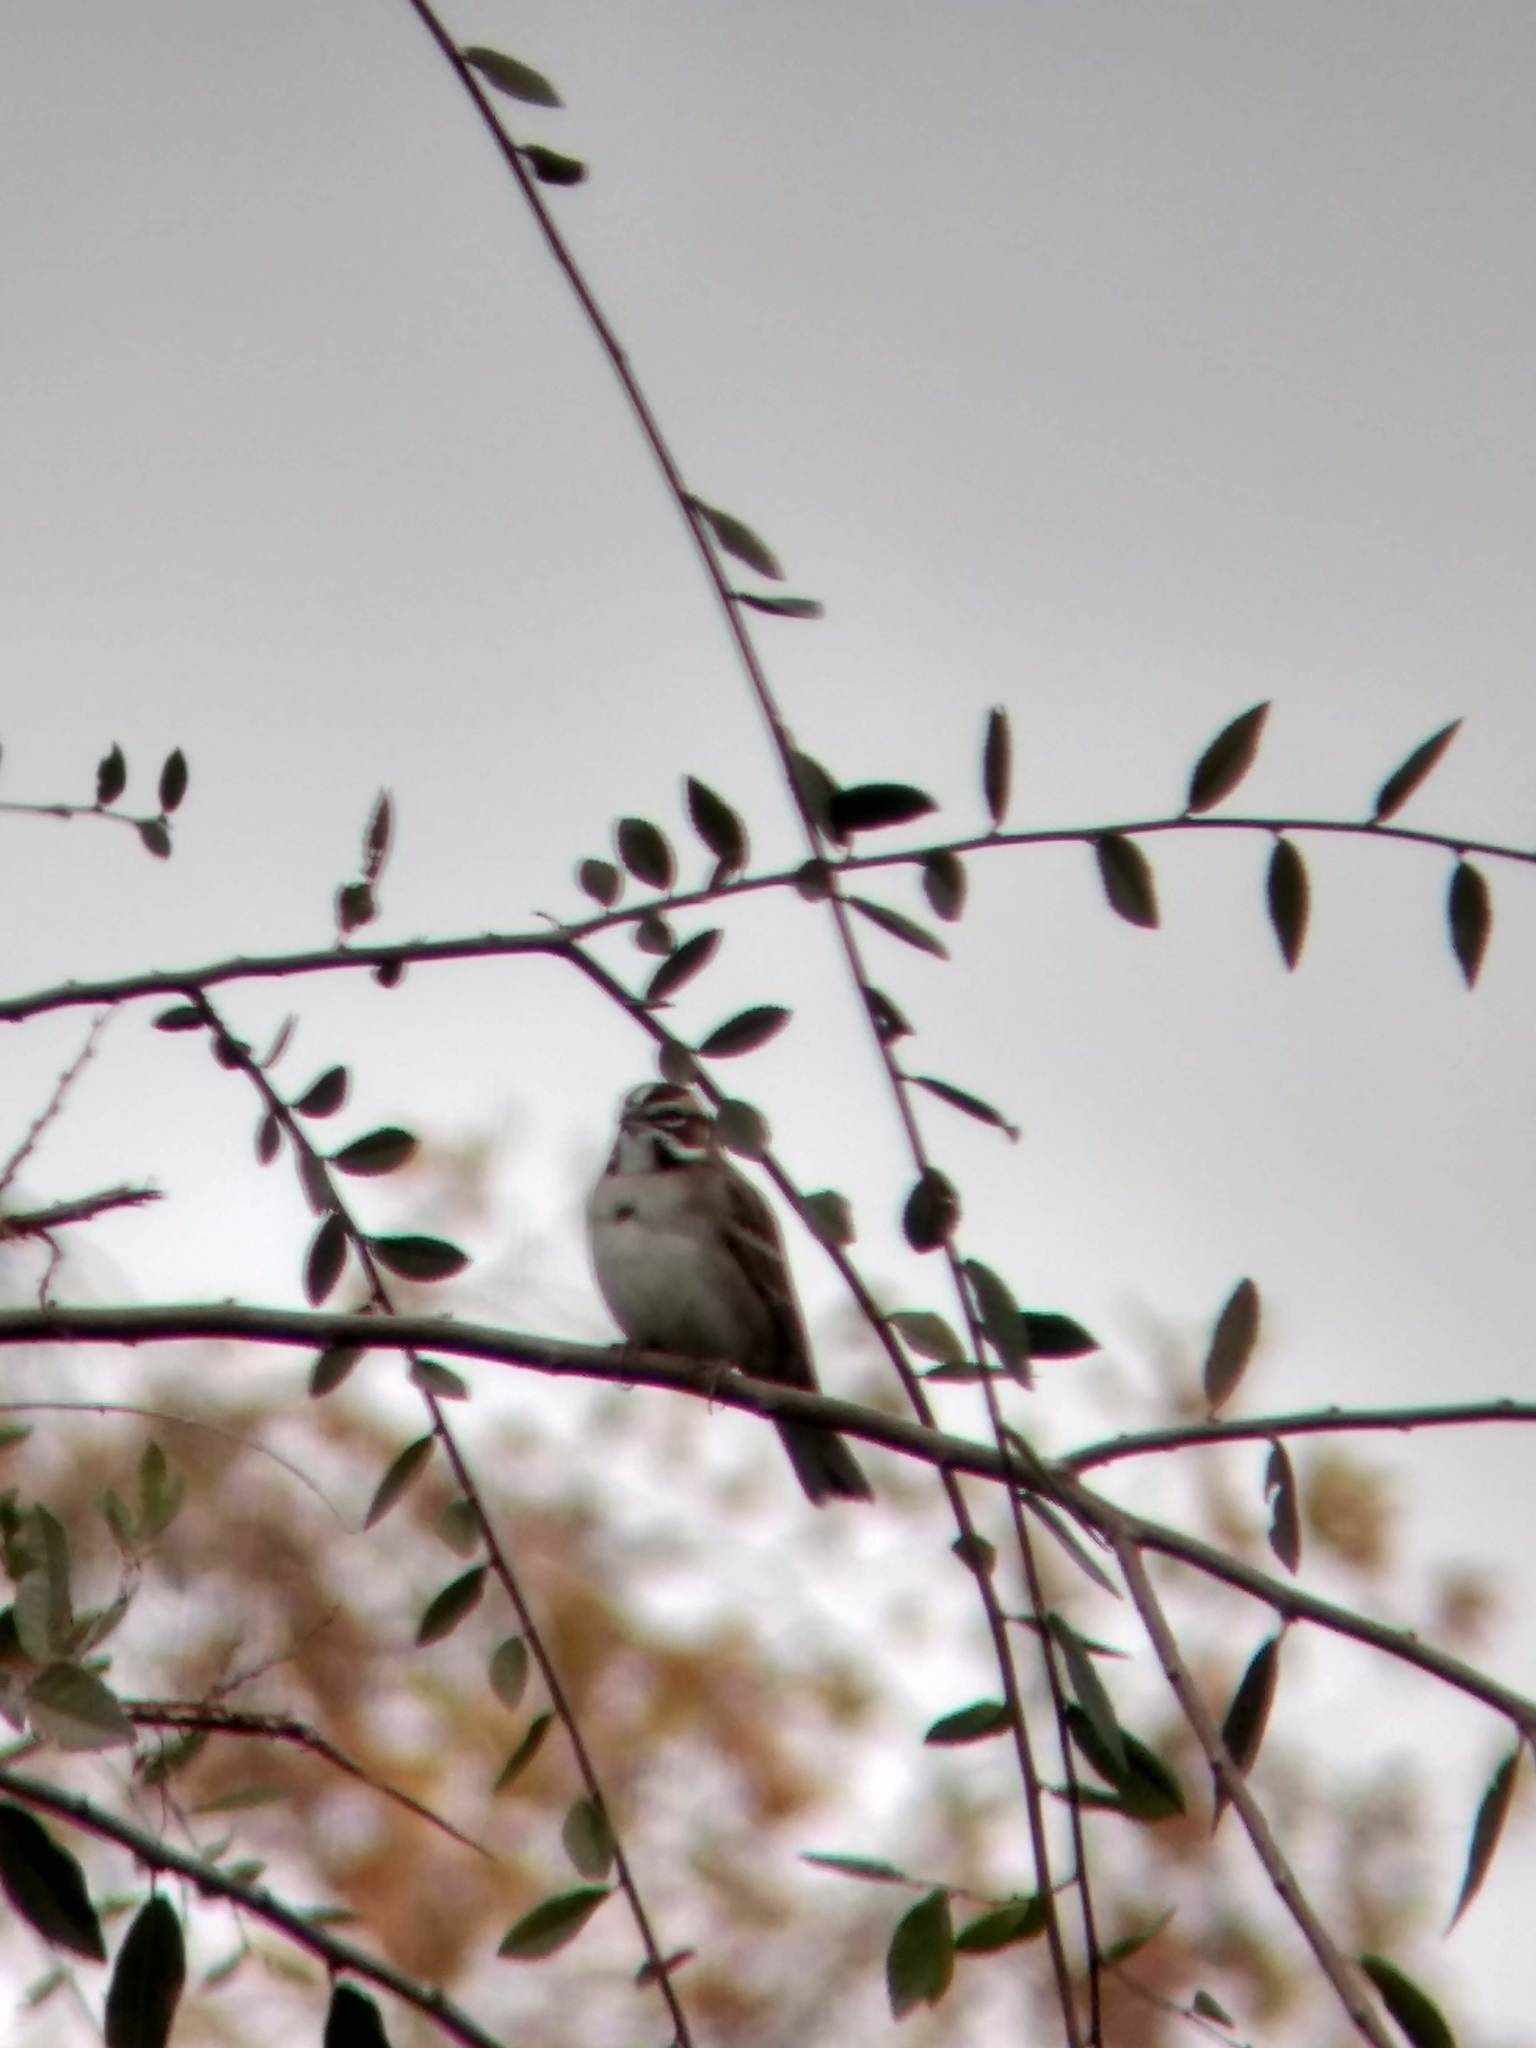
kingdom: Animalia
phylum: Chordata
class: Aves
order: Passeriformes
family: Passerellidae
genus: Chondestes
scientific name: Chondestes grammacus
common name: Lark sparrow
